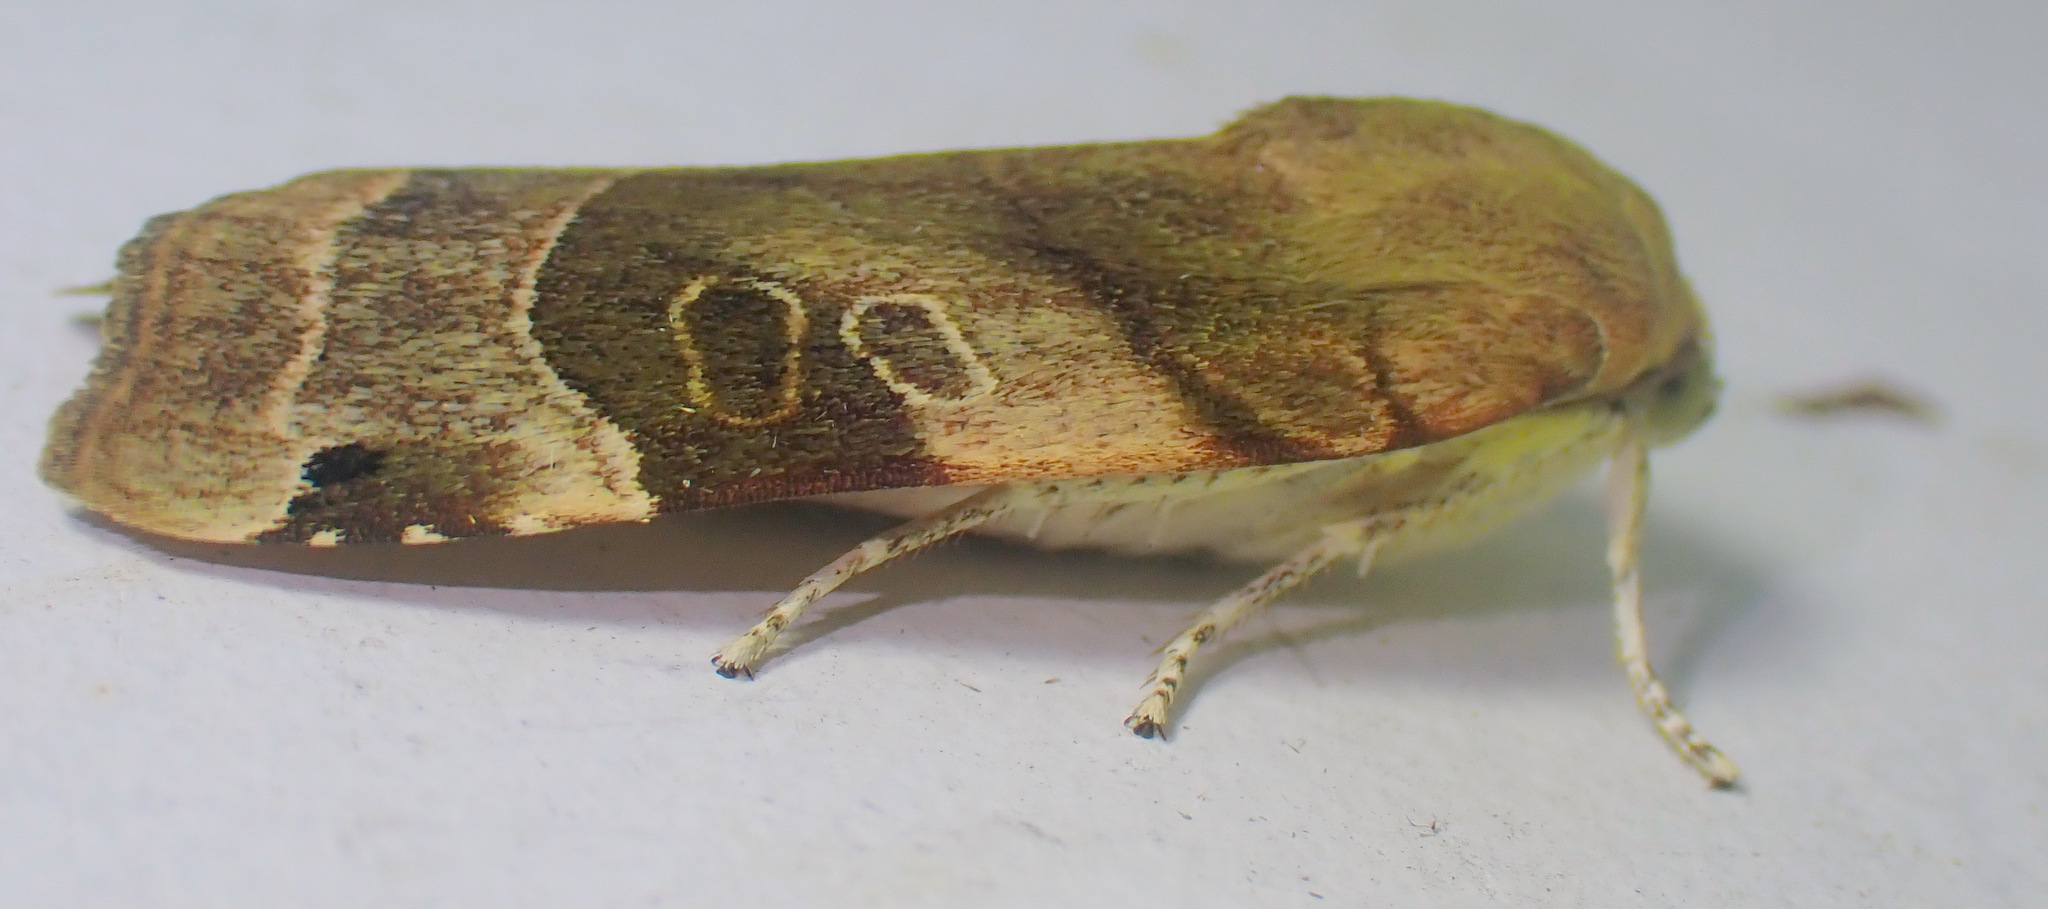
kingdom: Animalia
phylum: Arthropoda
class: Insecta
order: Lepidoptera
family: Noctuidae
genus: Noctua
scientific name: Noctua fimbriata
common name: Broad-bordered yellow underwing
